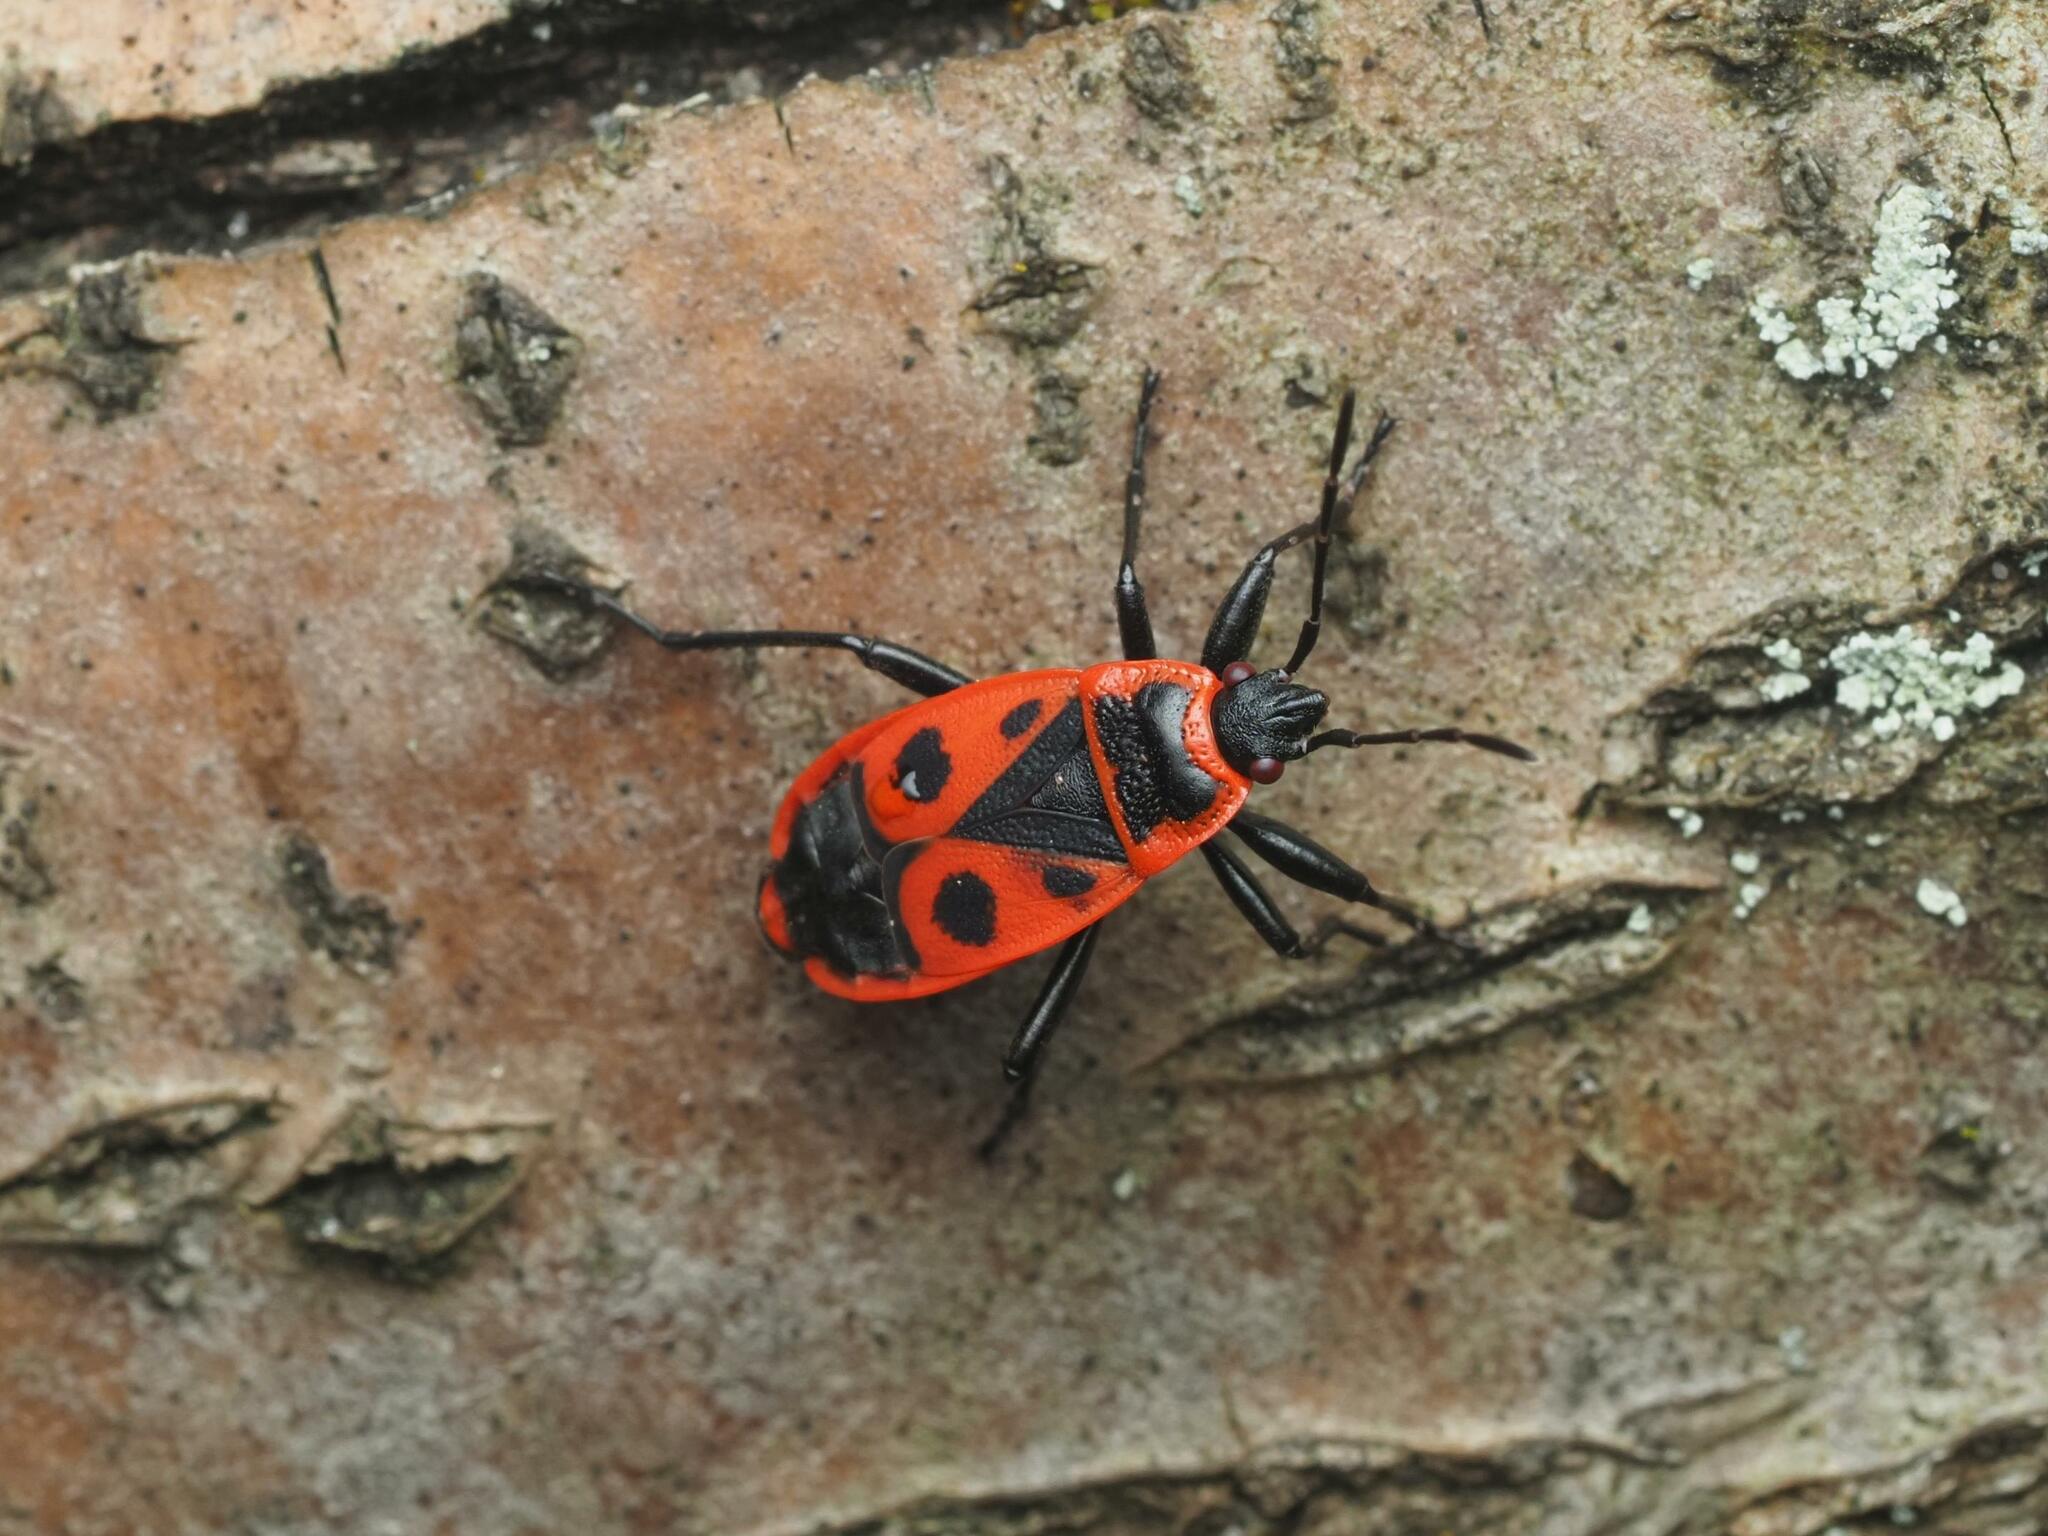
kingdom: Animalia
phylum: Arthropoda
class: Insecta
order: Hemiptera
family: Pyrrhocoridae
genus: Pyrrhocoris
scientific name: Pyrrhocoris apterus
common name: Firebug
